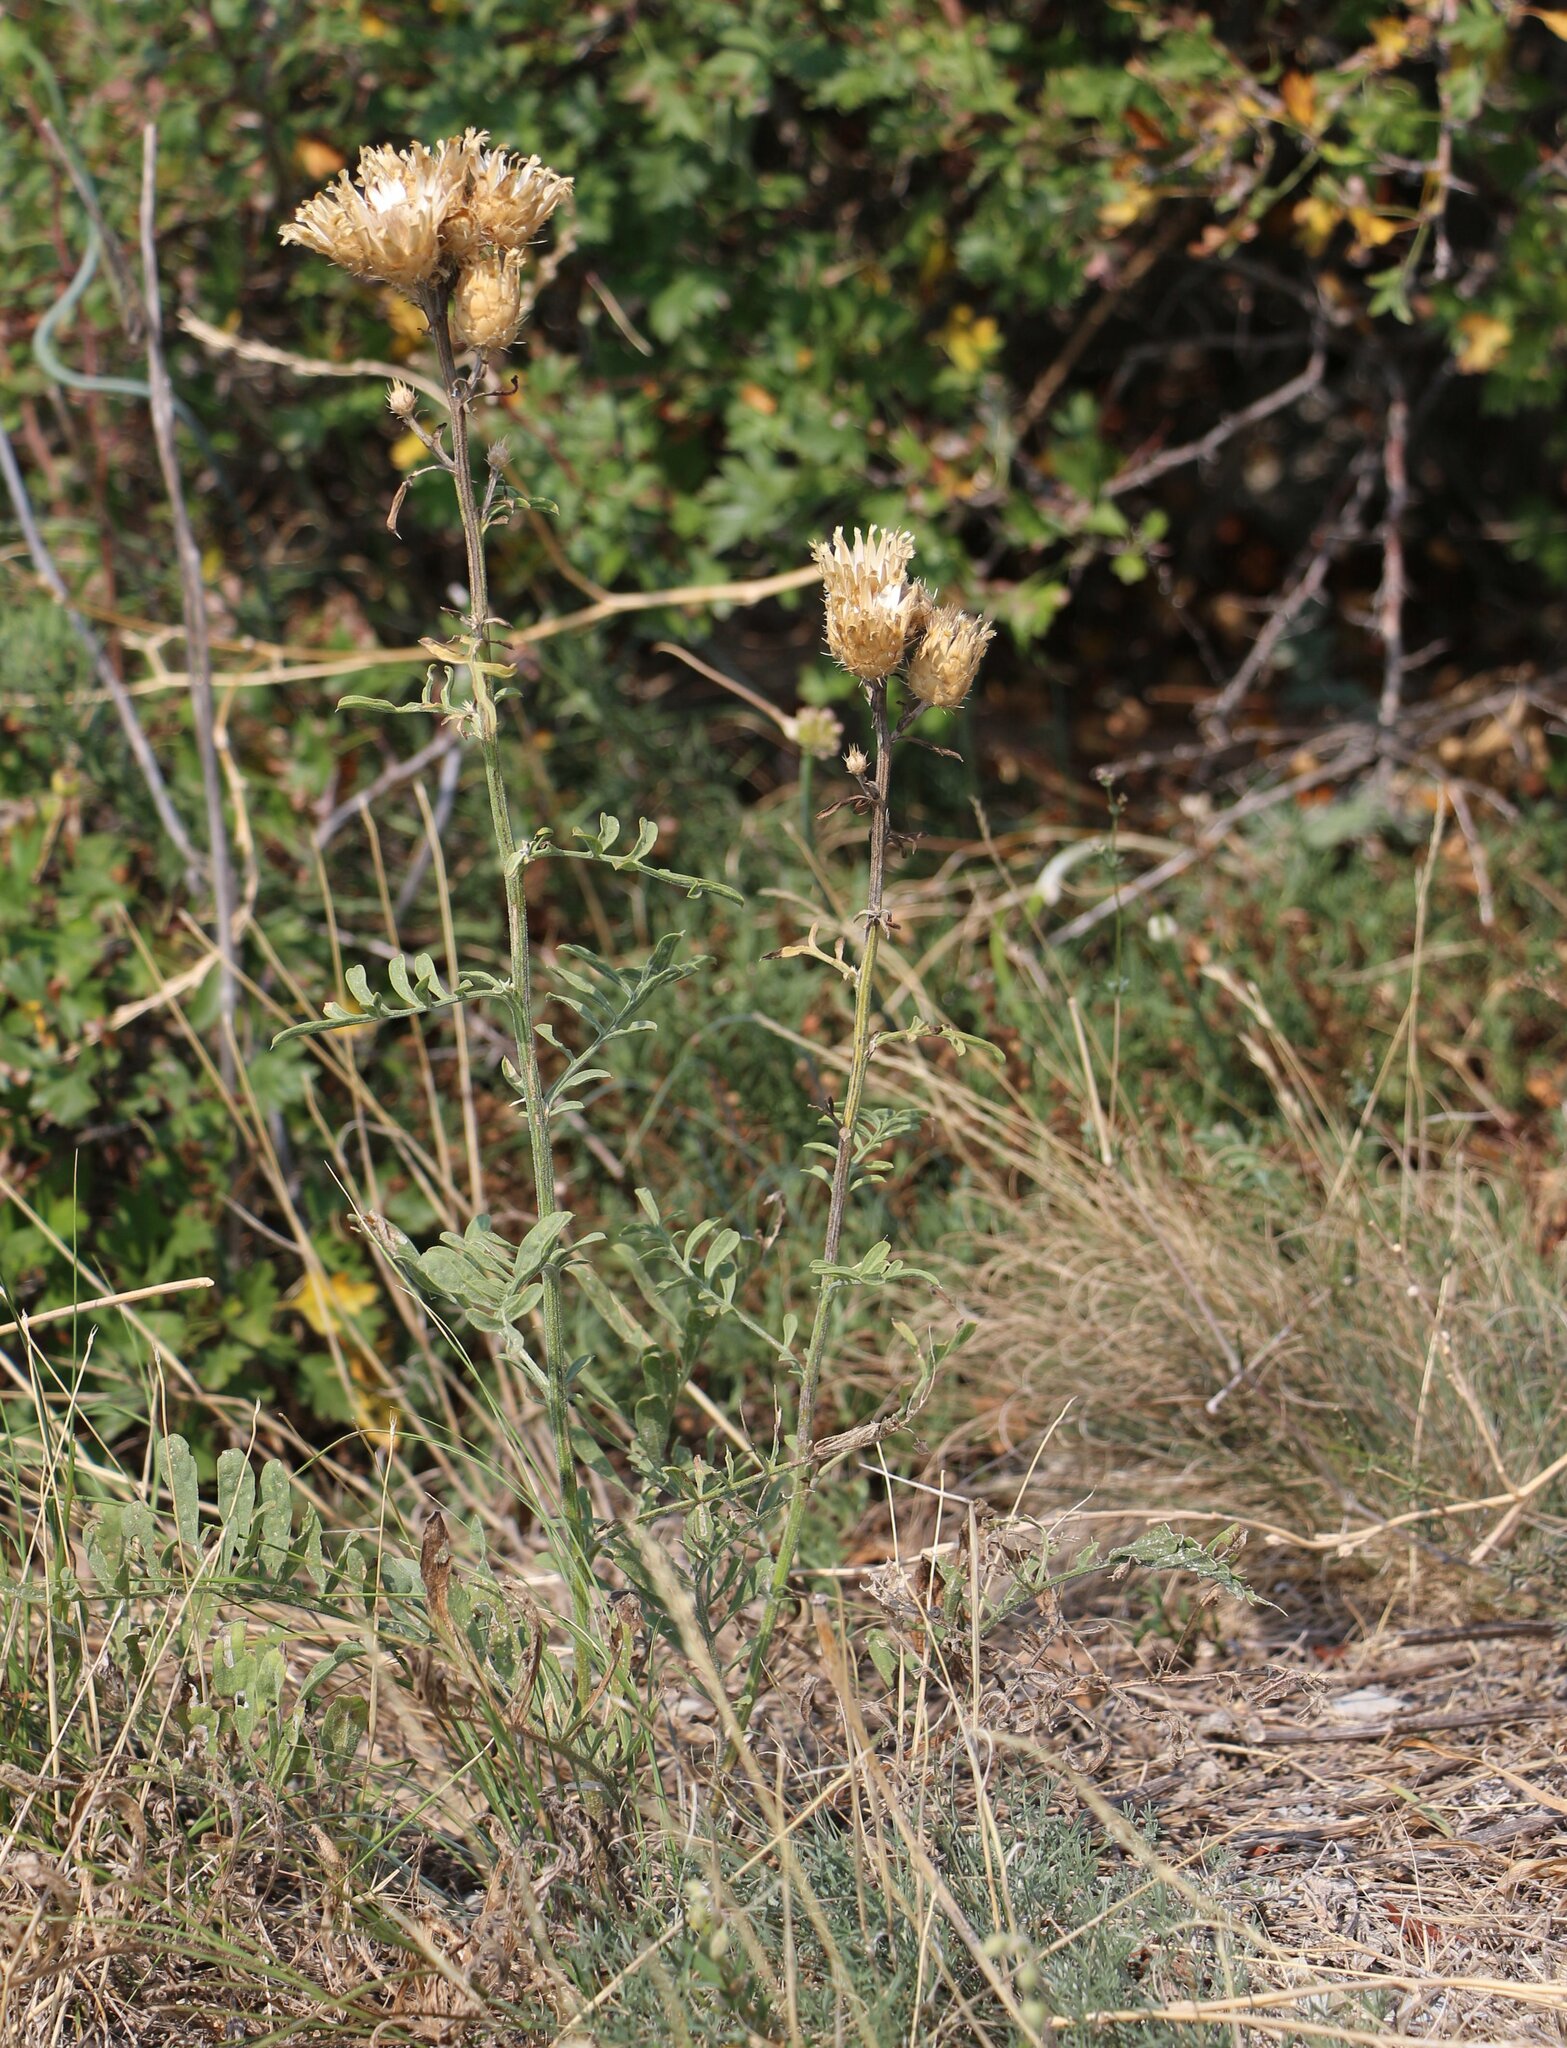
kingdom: Plantae
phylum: Tracheophyta
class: Magnoliopsida
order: Asterales
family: Asteraceae
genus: Centaurea
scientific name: Centaurea salonitana
